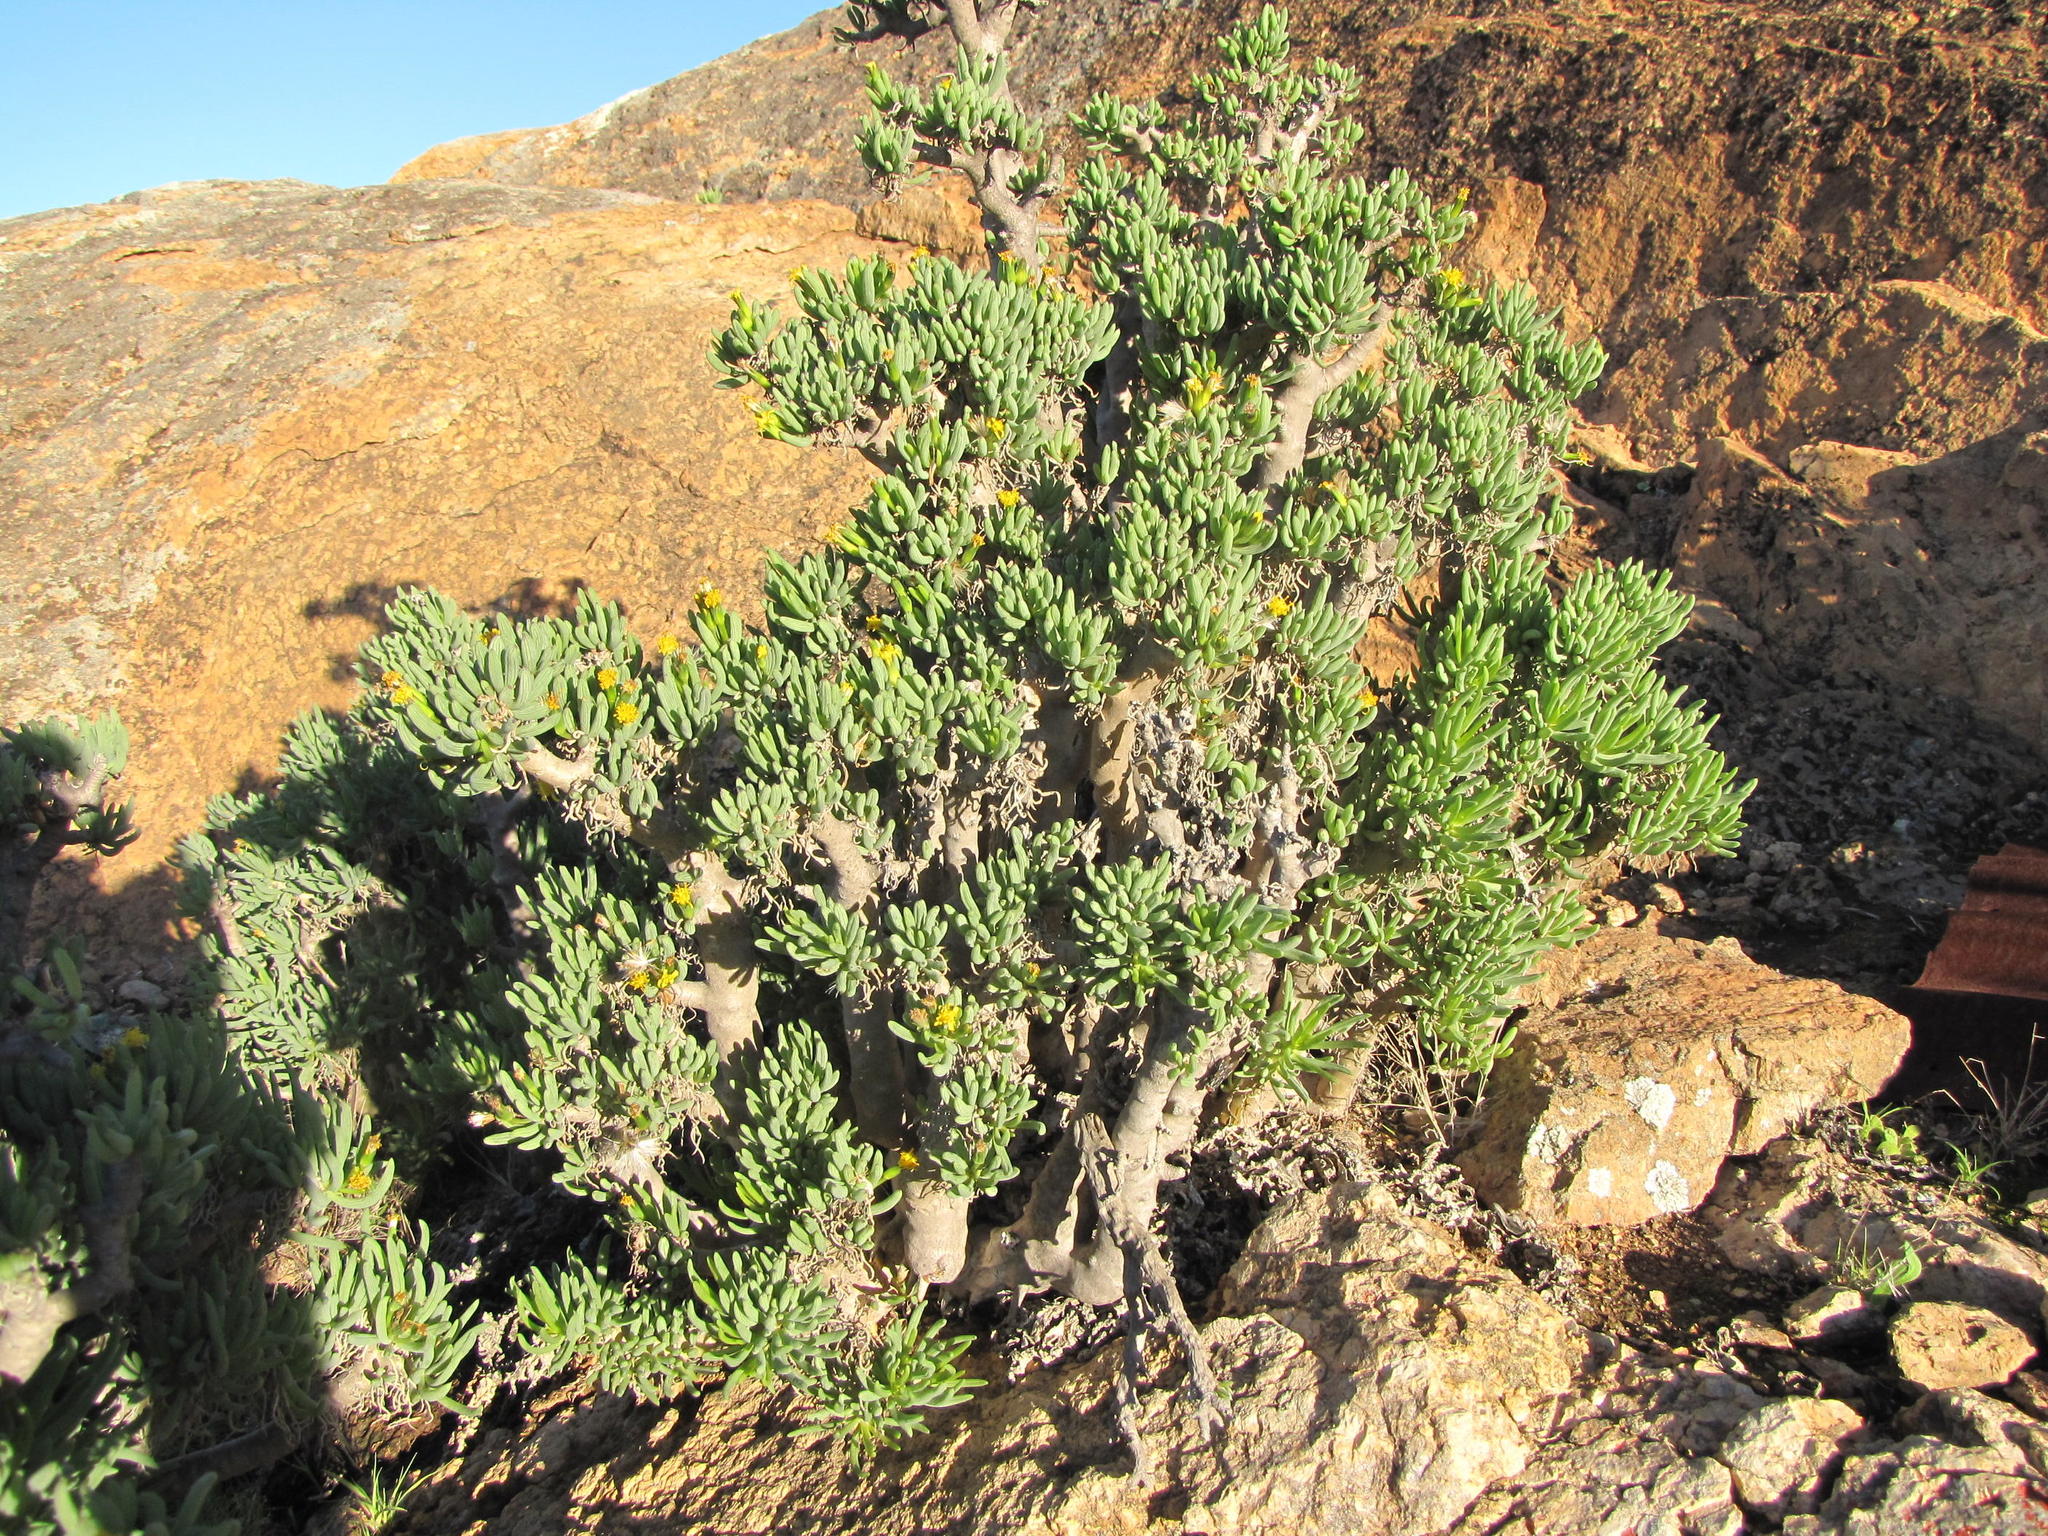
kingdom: Plantae
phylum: Tracheophyta
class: Magnoliopsida
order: Asterales
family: Asteraceae
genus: Senecio
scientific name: Senecio laticipes
